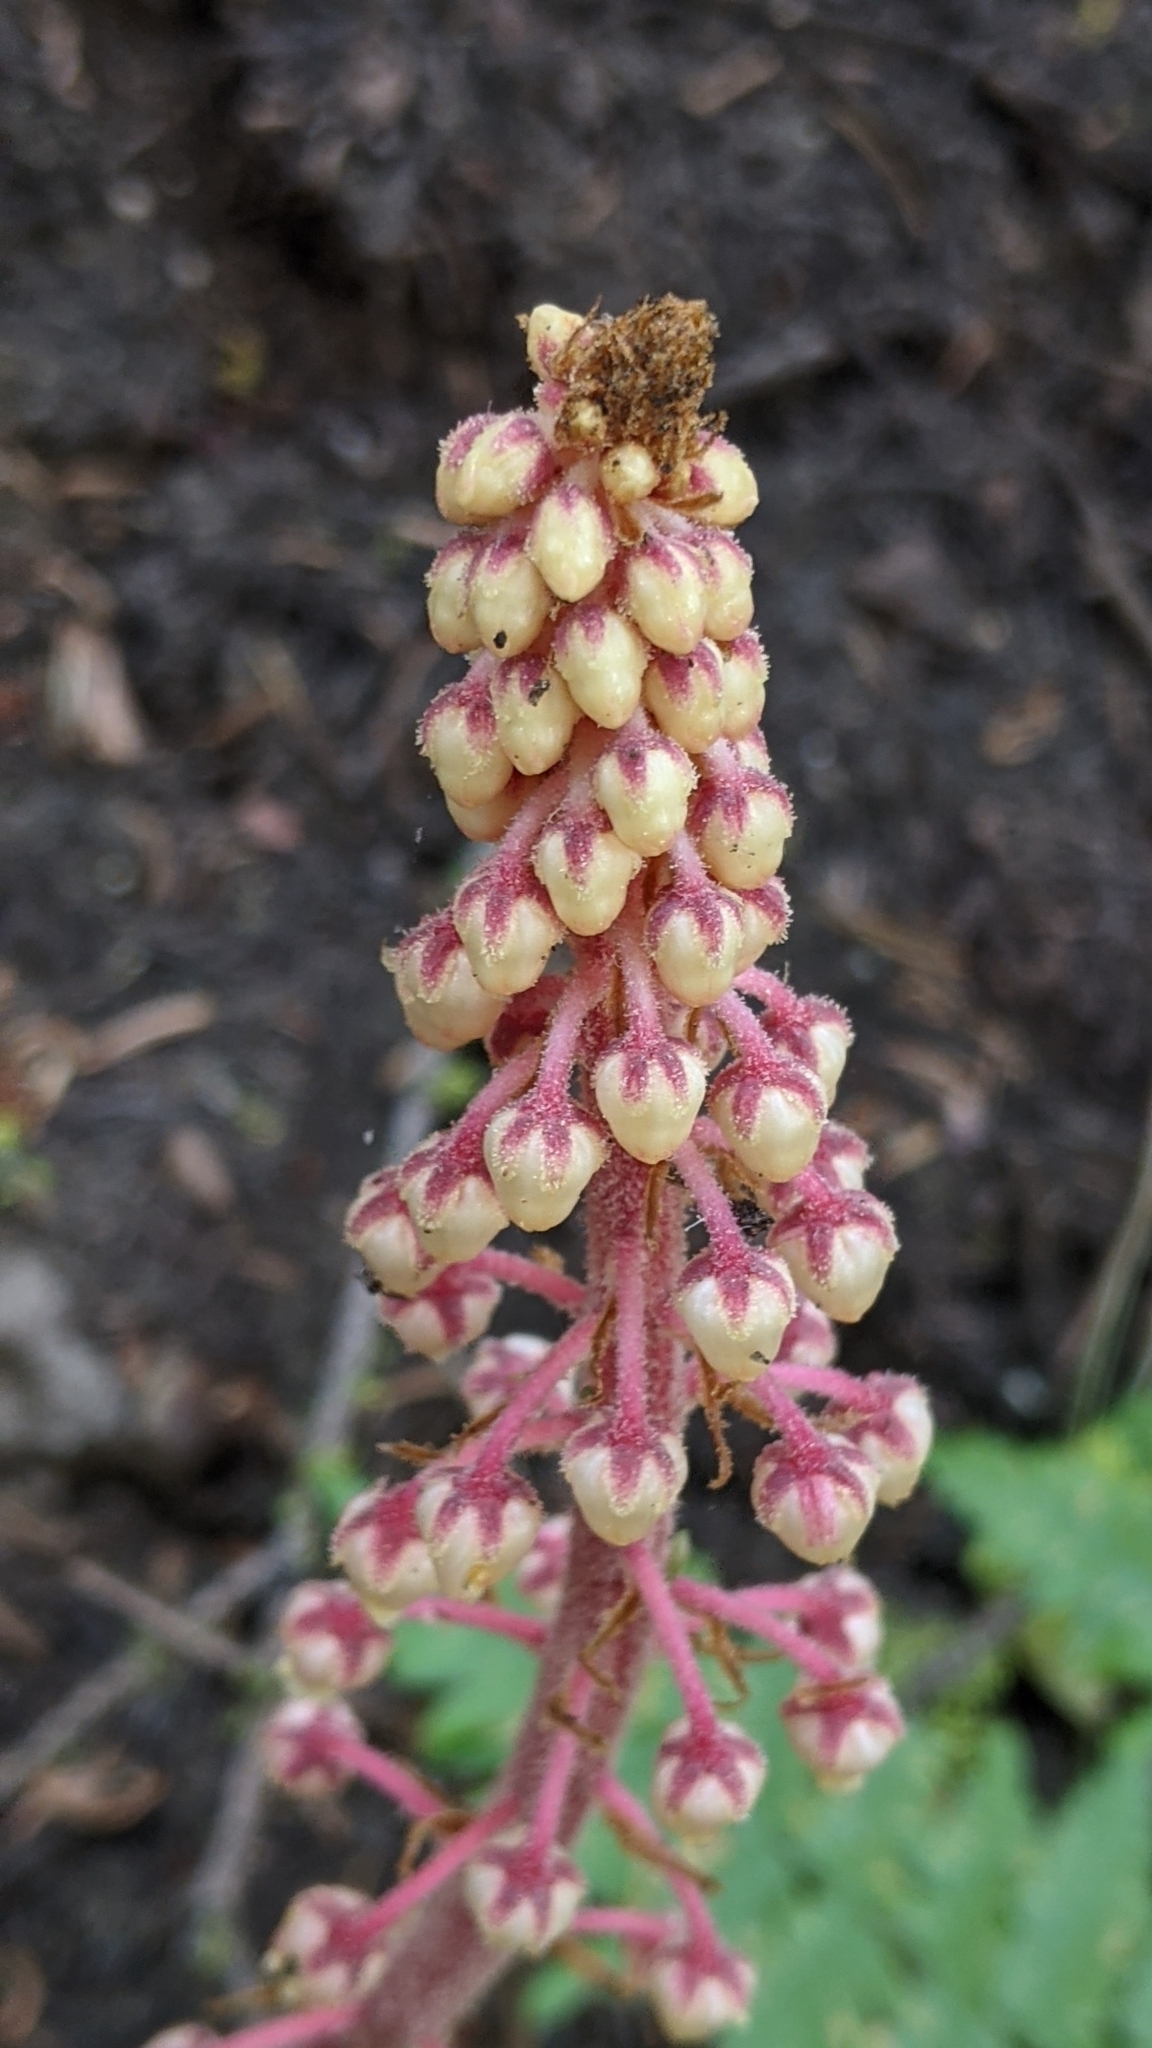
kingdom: Plantae
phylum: Tracheophyta
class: Magnoliopsida
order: Ericales
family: Ericaceae
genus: Pterospora
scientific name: Pterospora andromedea
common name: Giant bird's-nest
